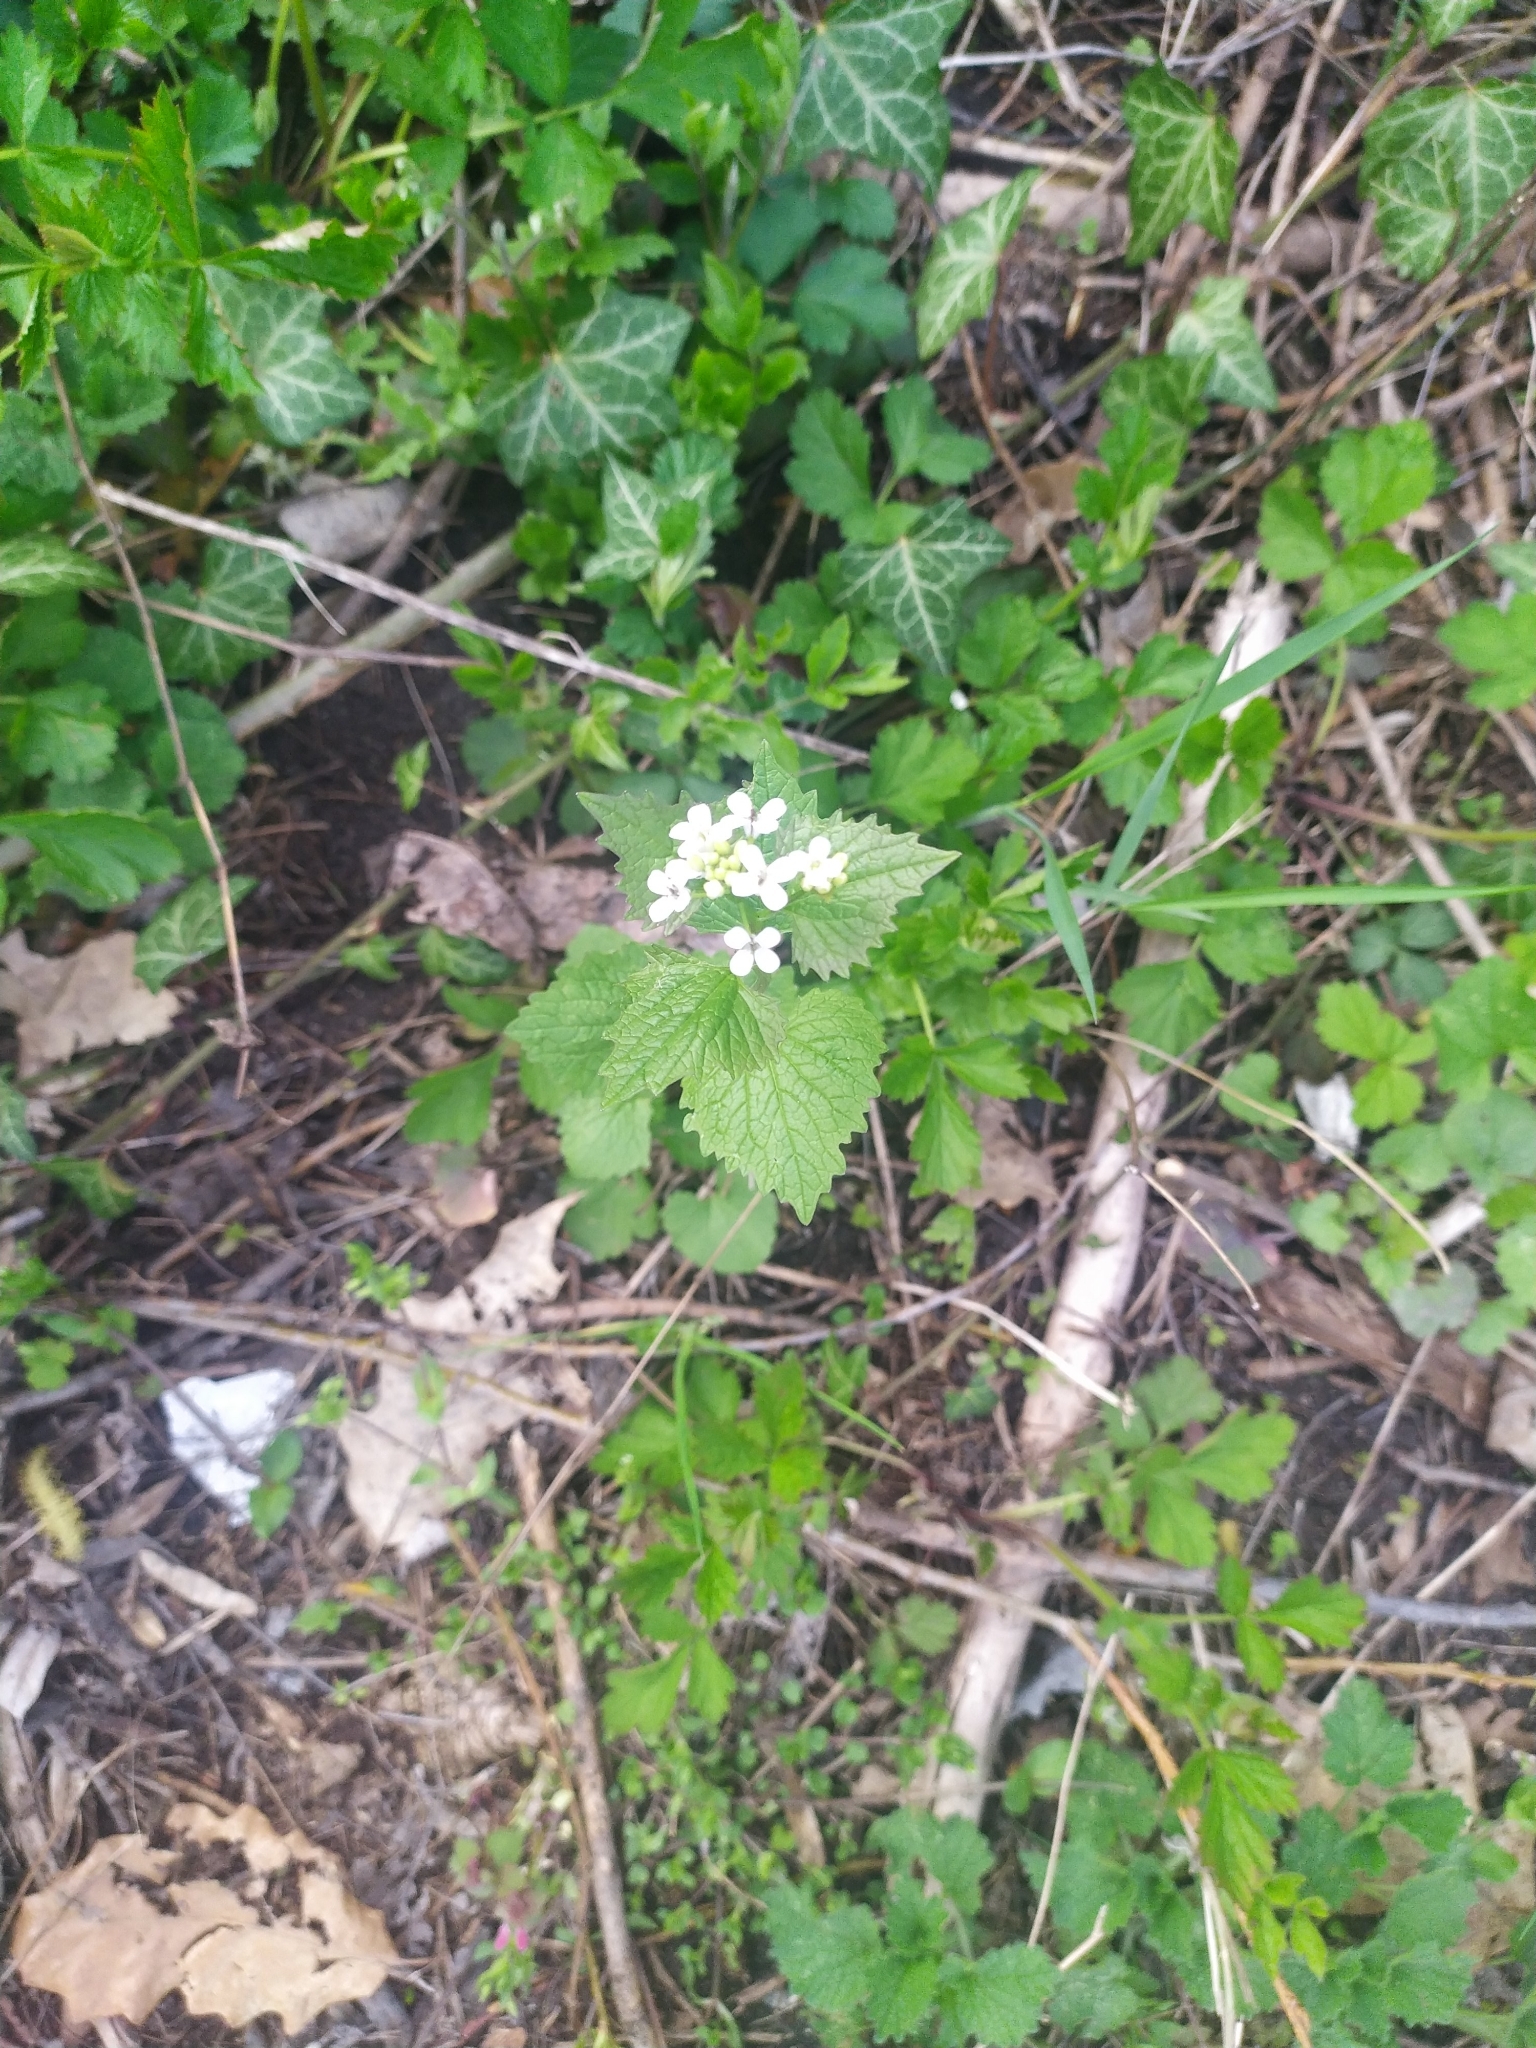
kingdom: Plantae
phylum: Tracheophyta
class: Magnoliopsida
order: Brassicales
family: Brassicaceae
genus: Alliaria
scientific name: Alliaria petiolata
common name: Garlic mustard
